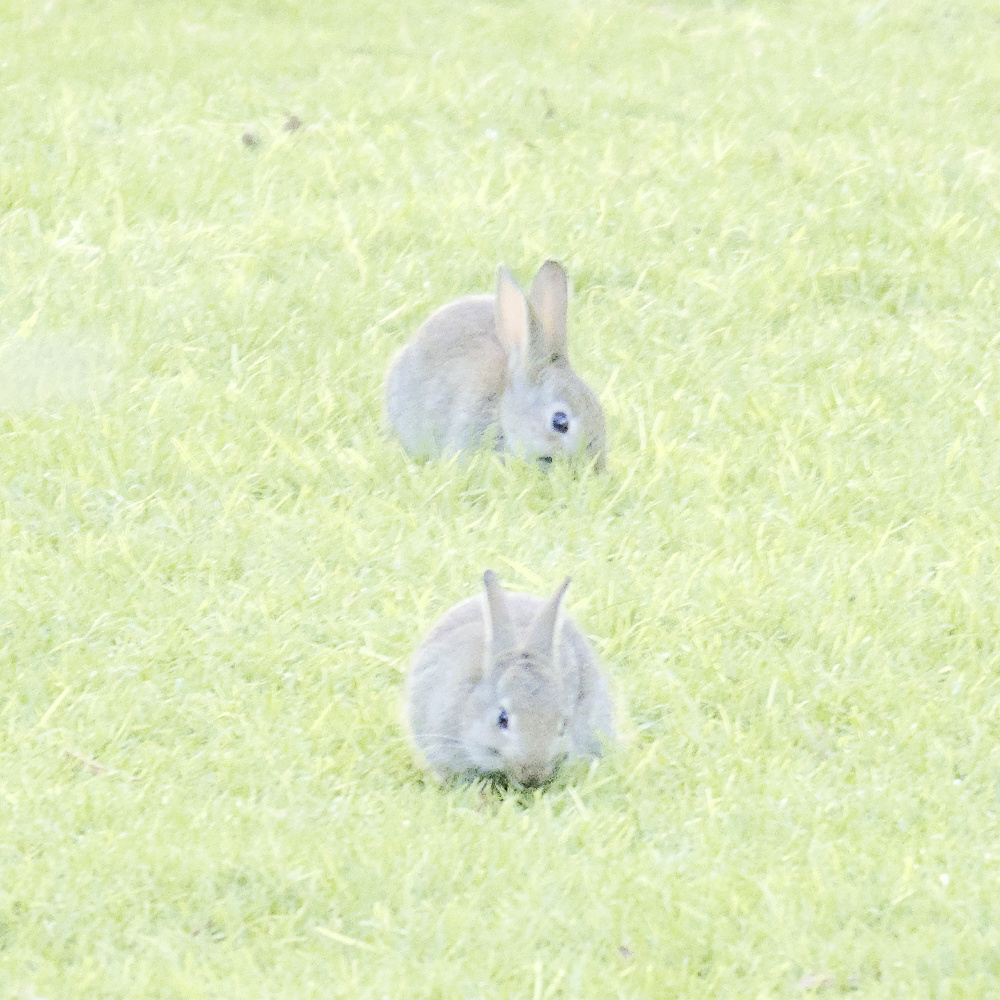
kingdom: Animalia
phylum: Chordata
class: Mammalia
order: Lagomorpha
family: Leporidae
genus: Oryctolagus
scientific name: Oryctolagus cuniculus
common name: European rabbit
